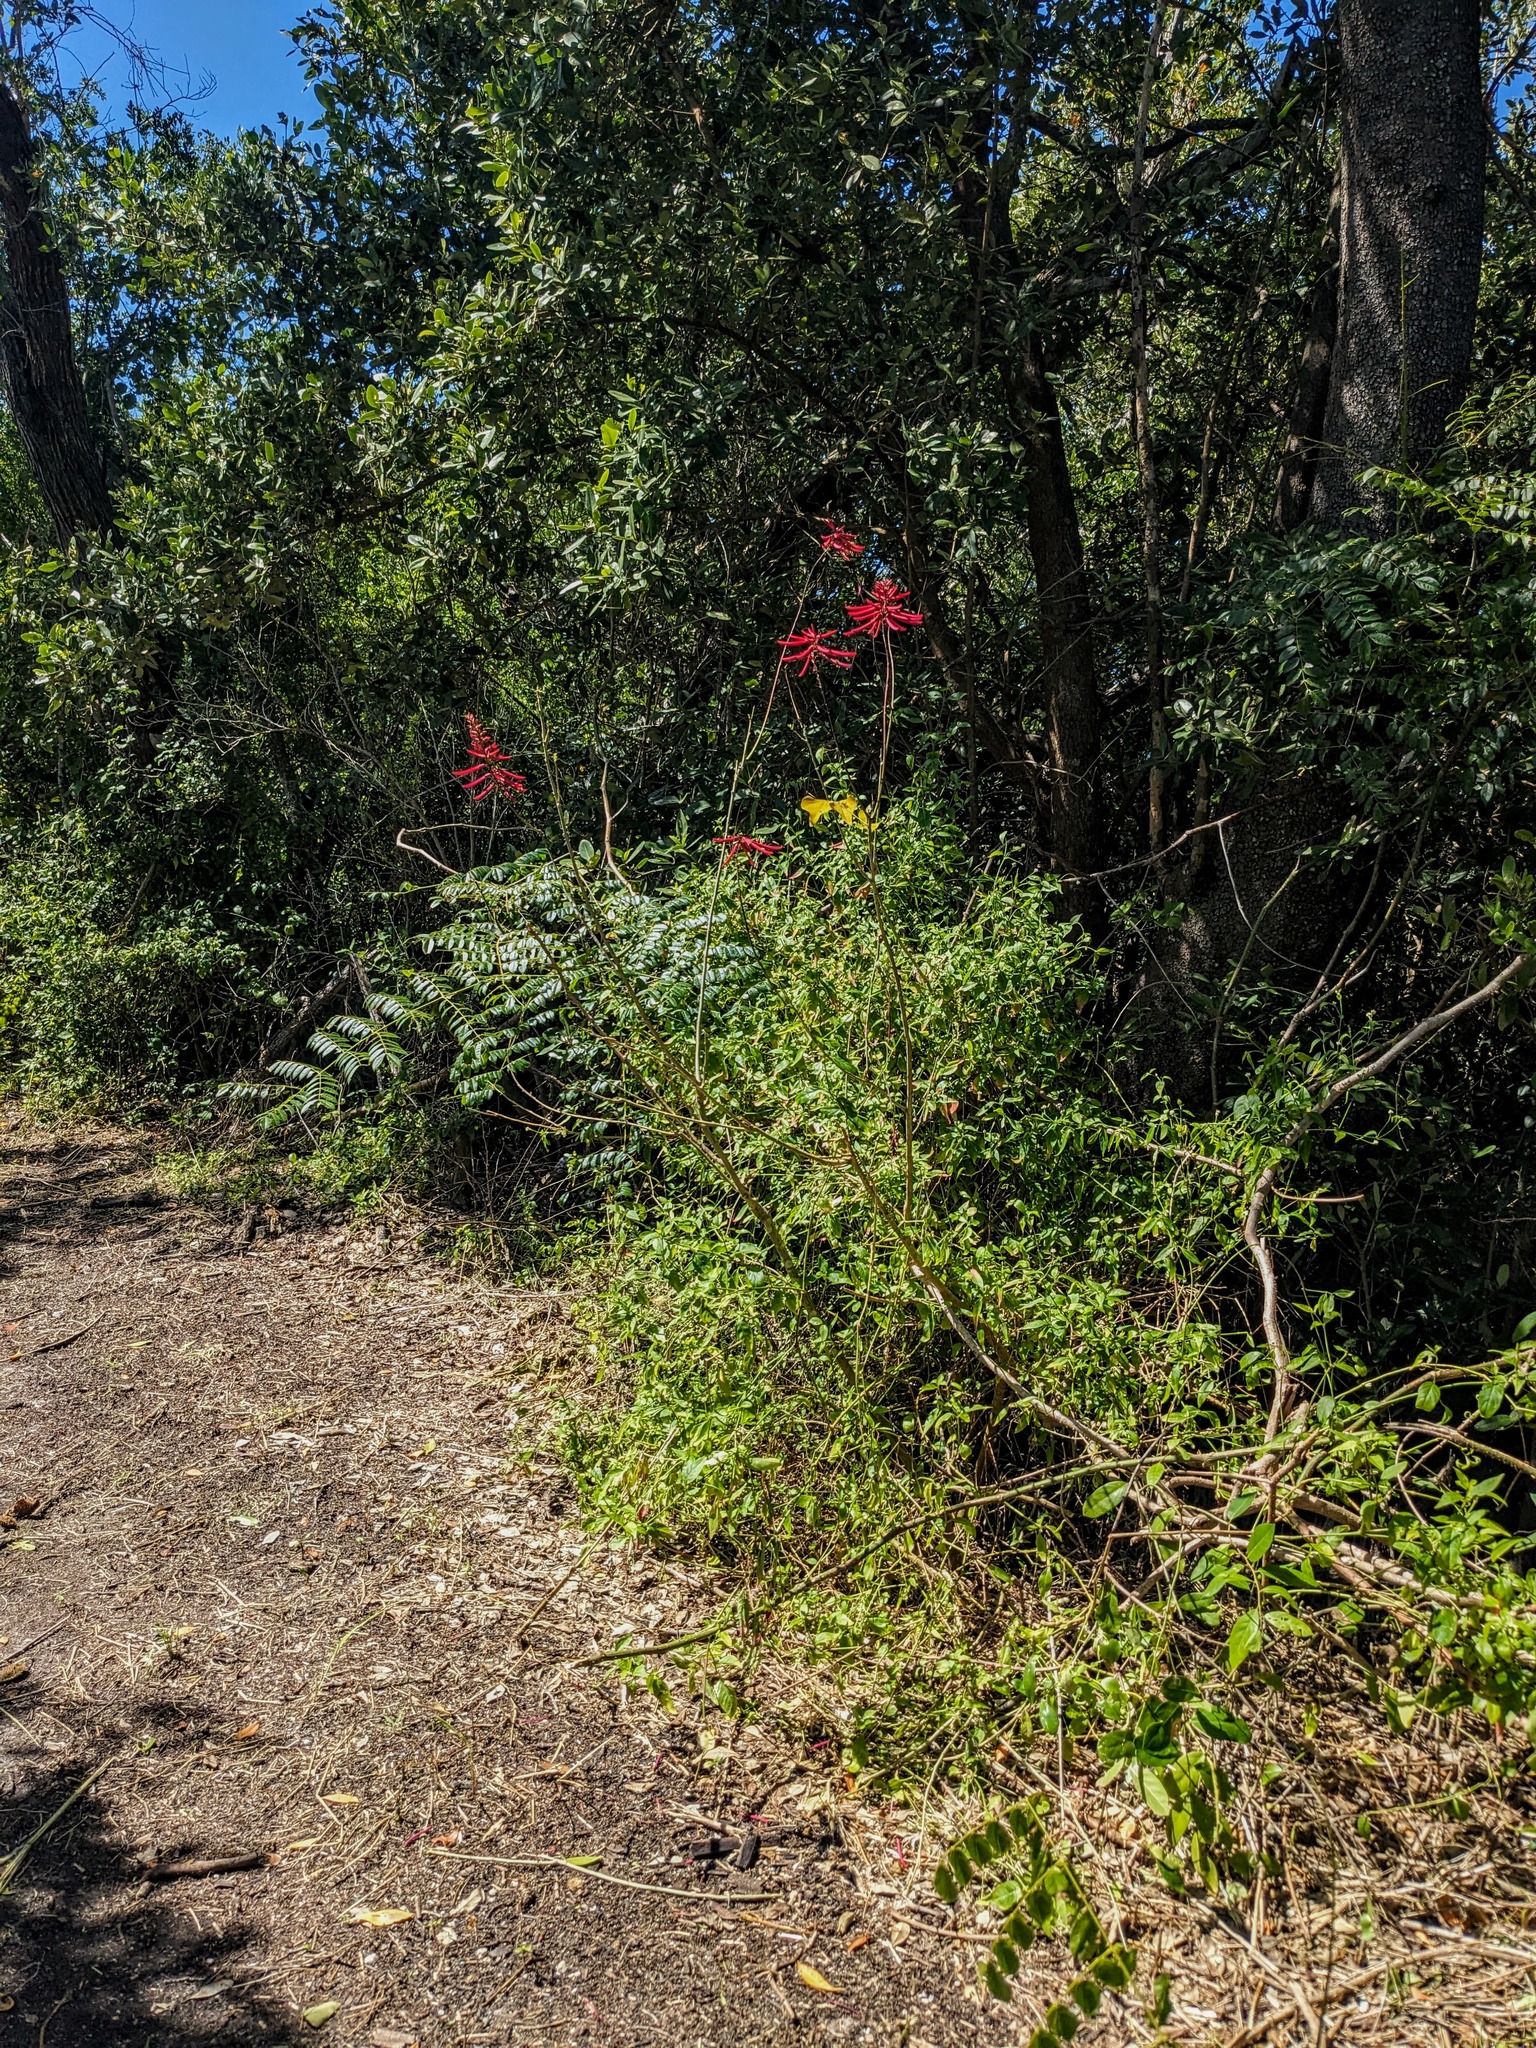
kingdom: Plantae
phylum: Tracheophyta
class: Magnoliopsida
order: Fabales
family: Fabaceae
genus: Erythrina
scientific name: Erythrina herbacea
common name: Coral-bean
